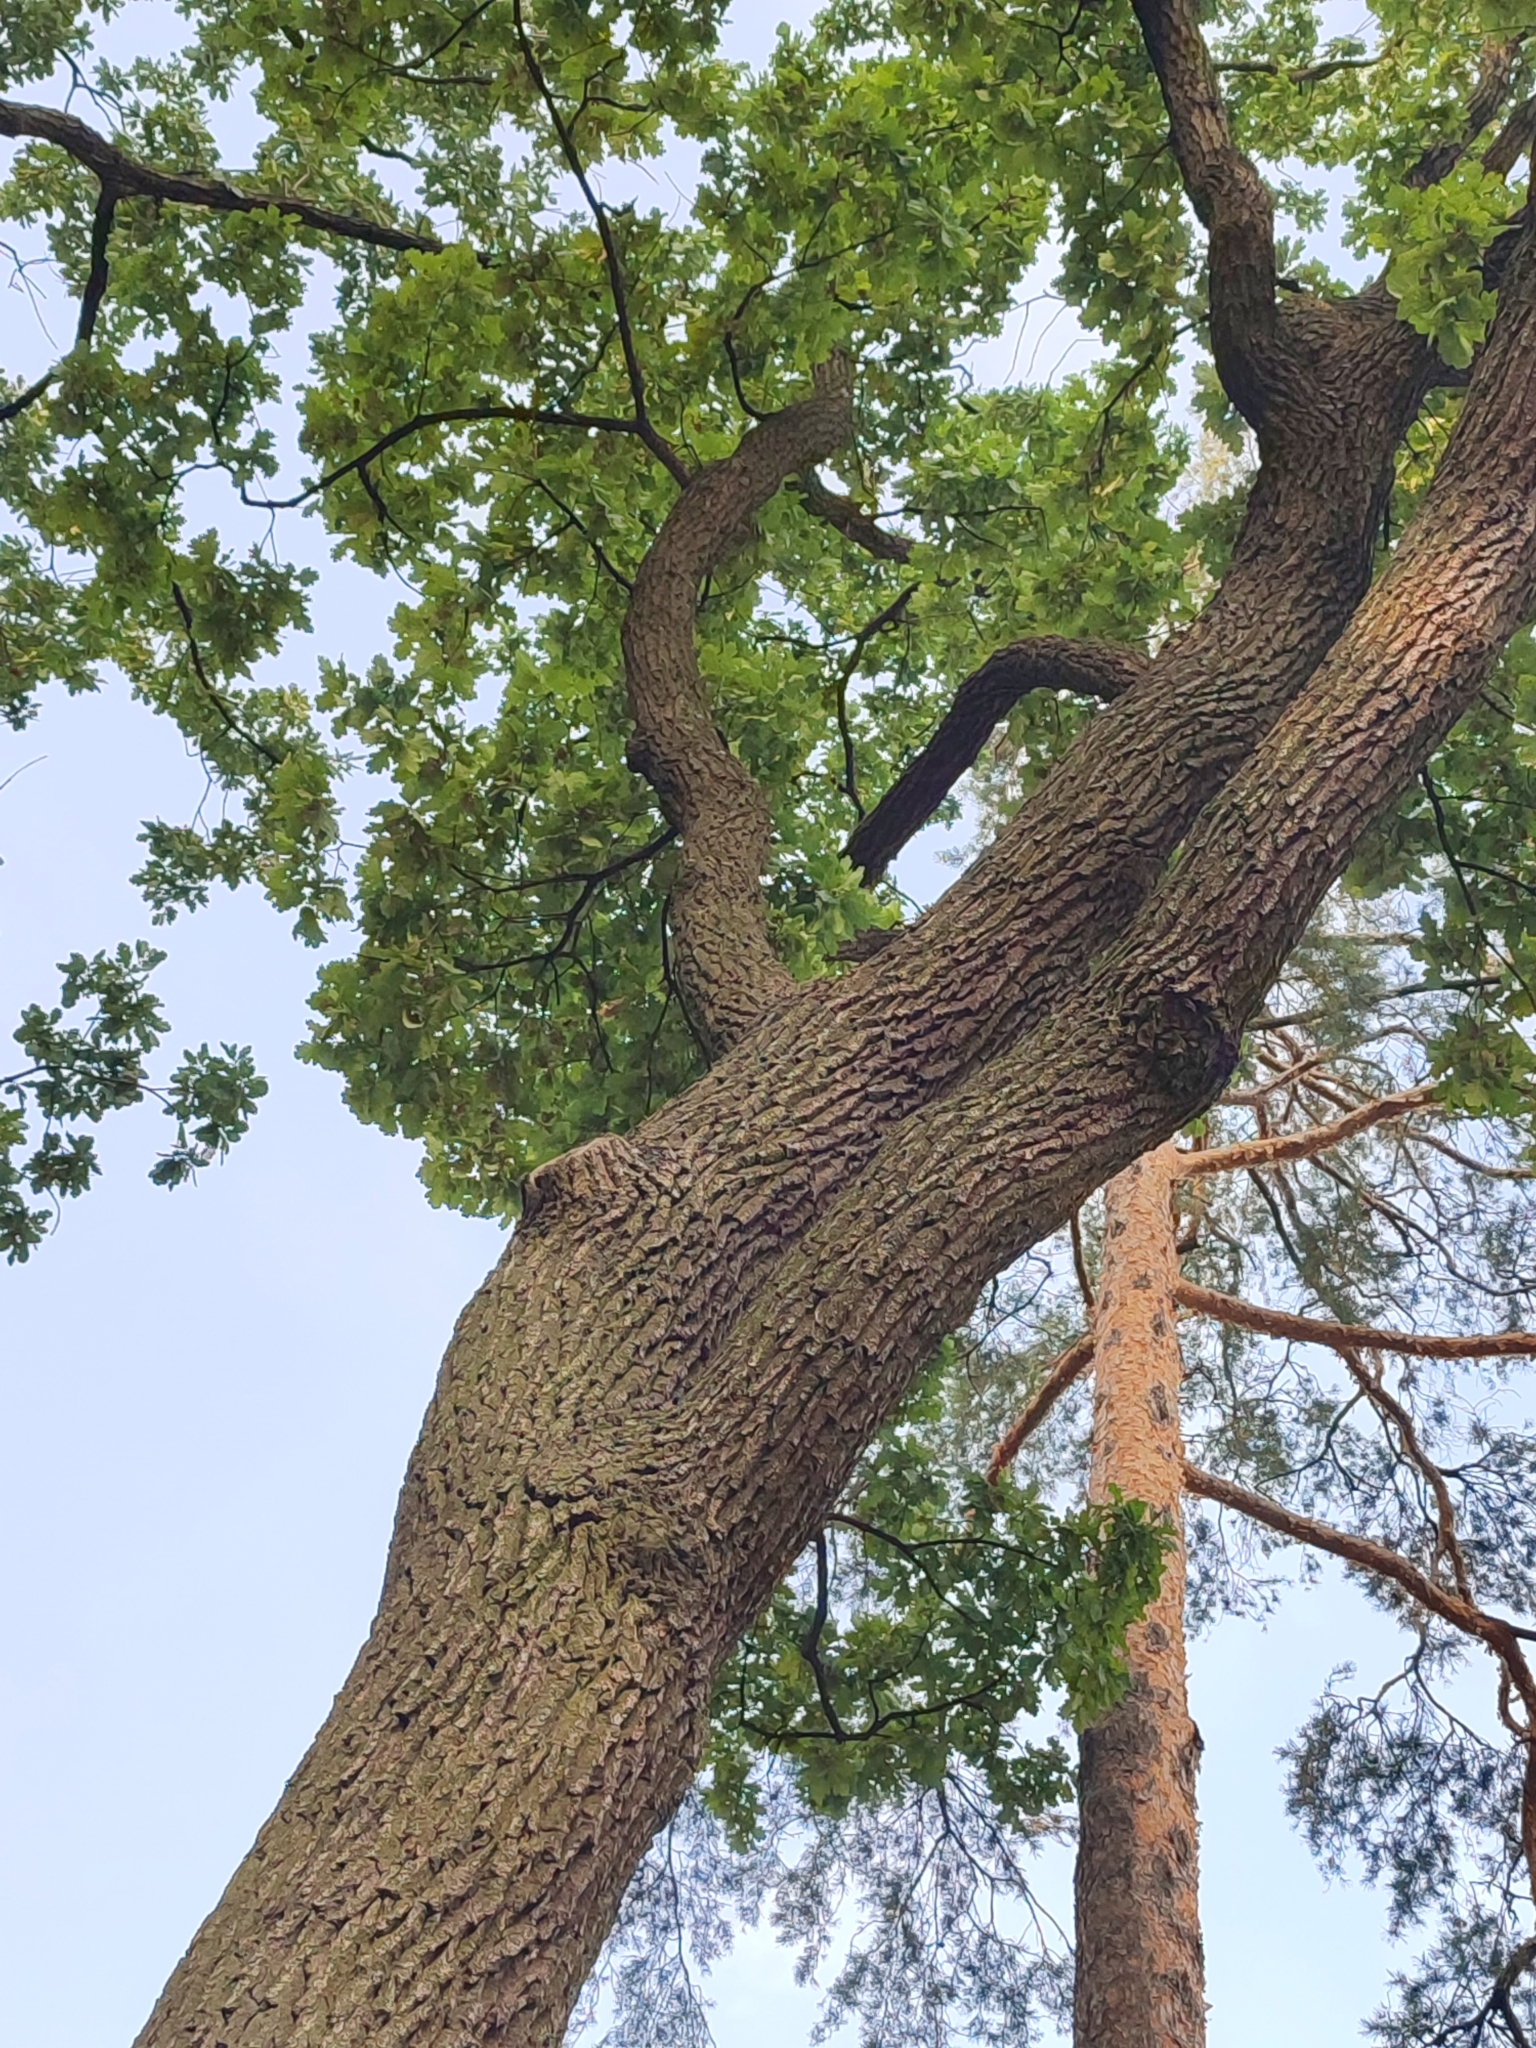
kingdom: Plantae
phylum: Tracheophyta
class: Magnoliopsida
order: Fagales
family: Fagaceae
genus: Quercus
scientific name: Quercus robur
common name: Pedunculate oak
